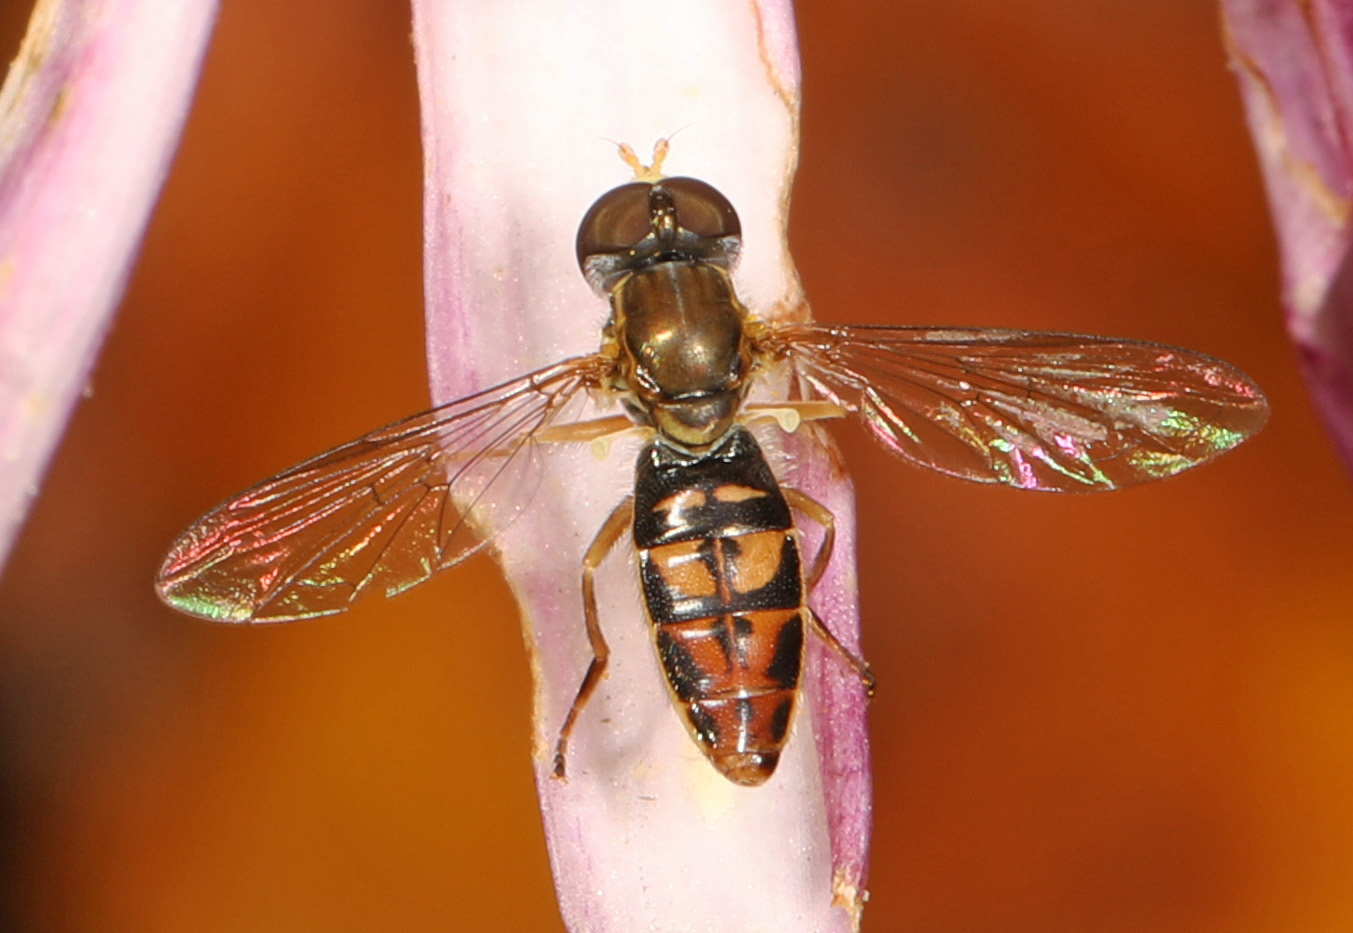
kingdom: Animalia
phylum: Arthropoda
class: Insecta
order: Diptera
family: Syrphidae
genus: Toxomerus
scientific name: Toxomerus marginatus
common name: Syrphid fly
